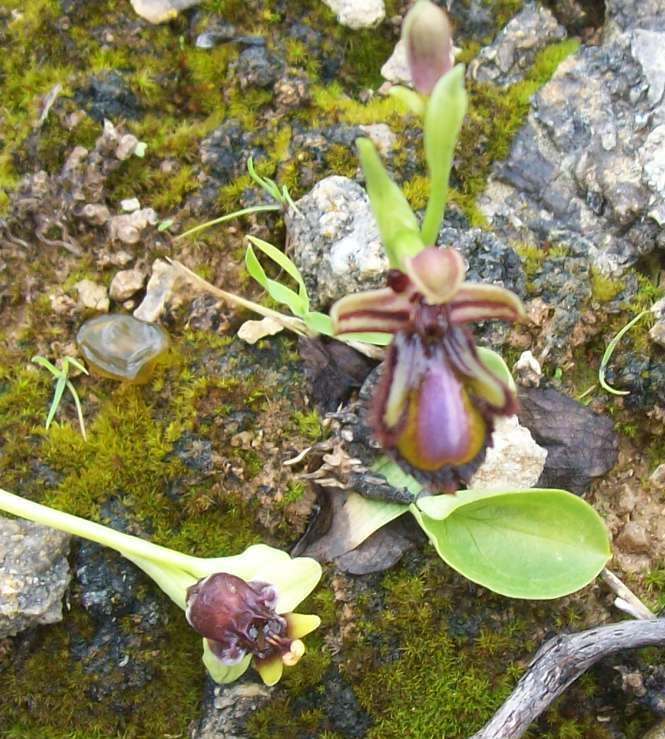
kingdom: Plantae
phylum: Tracheophyta
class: Liliopsida
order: Asparagales
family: Orchidaceae
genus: Ophrys
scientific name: Ophrys speculum
